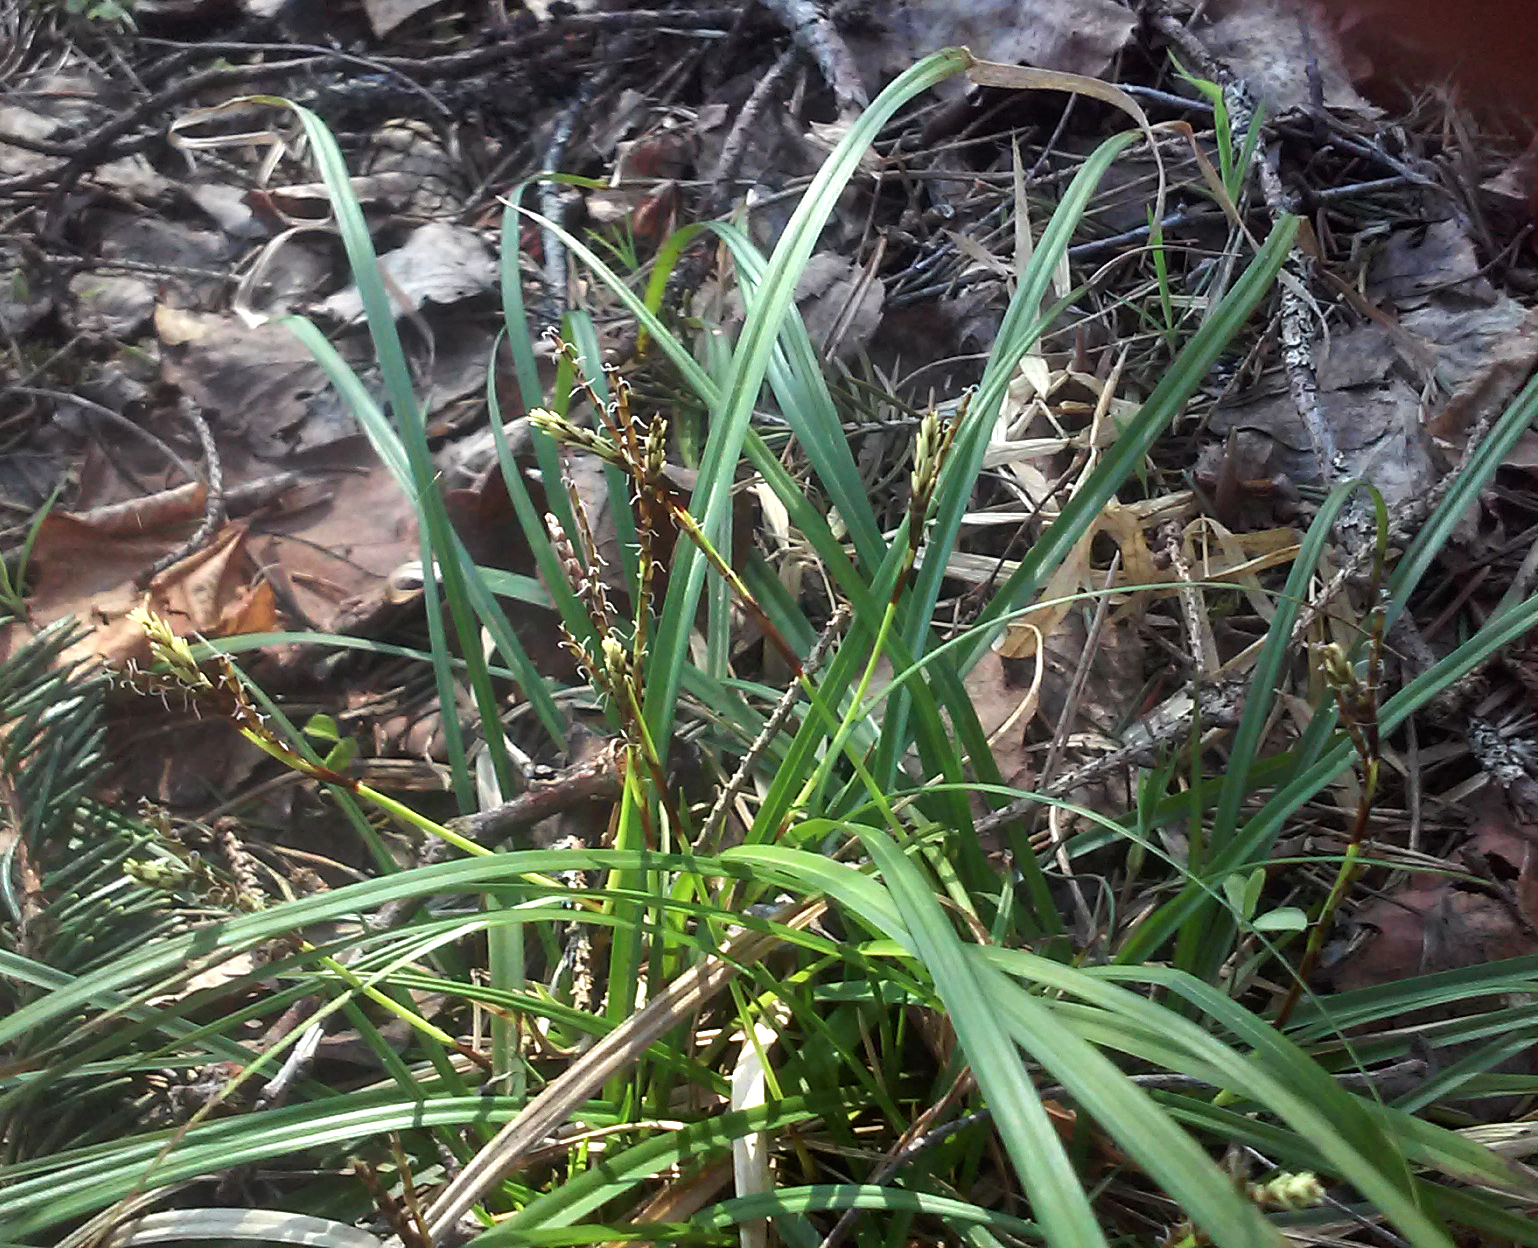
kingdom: Plantae
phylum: Tracheophyta
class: Liliopsida
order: Poales
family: Cyperaceae
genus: Carex
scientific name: Carex digitata
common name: Fingered sedge
